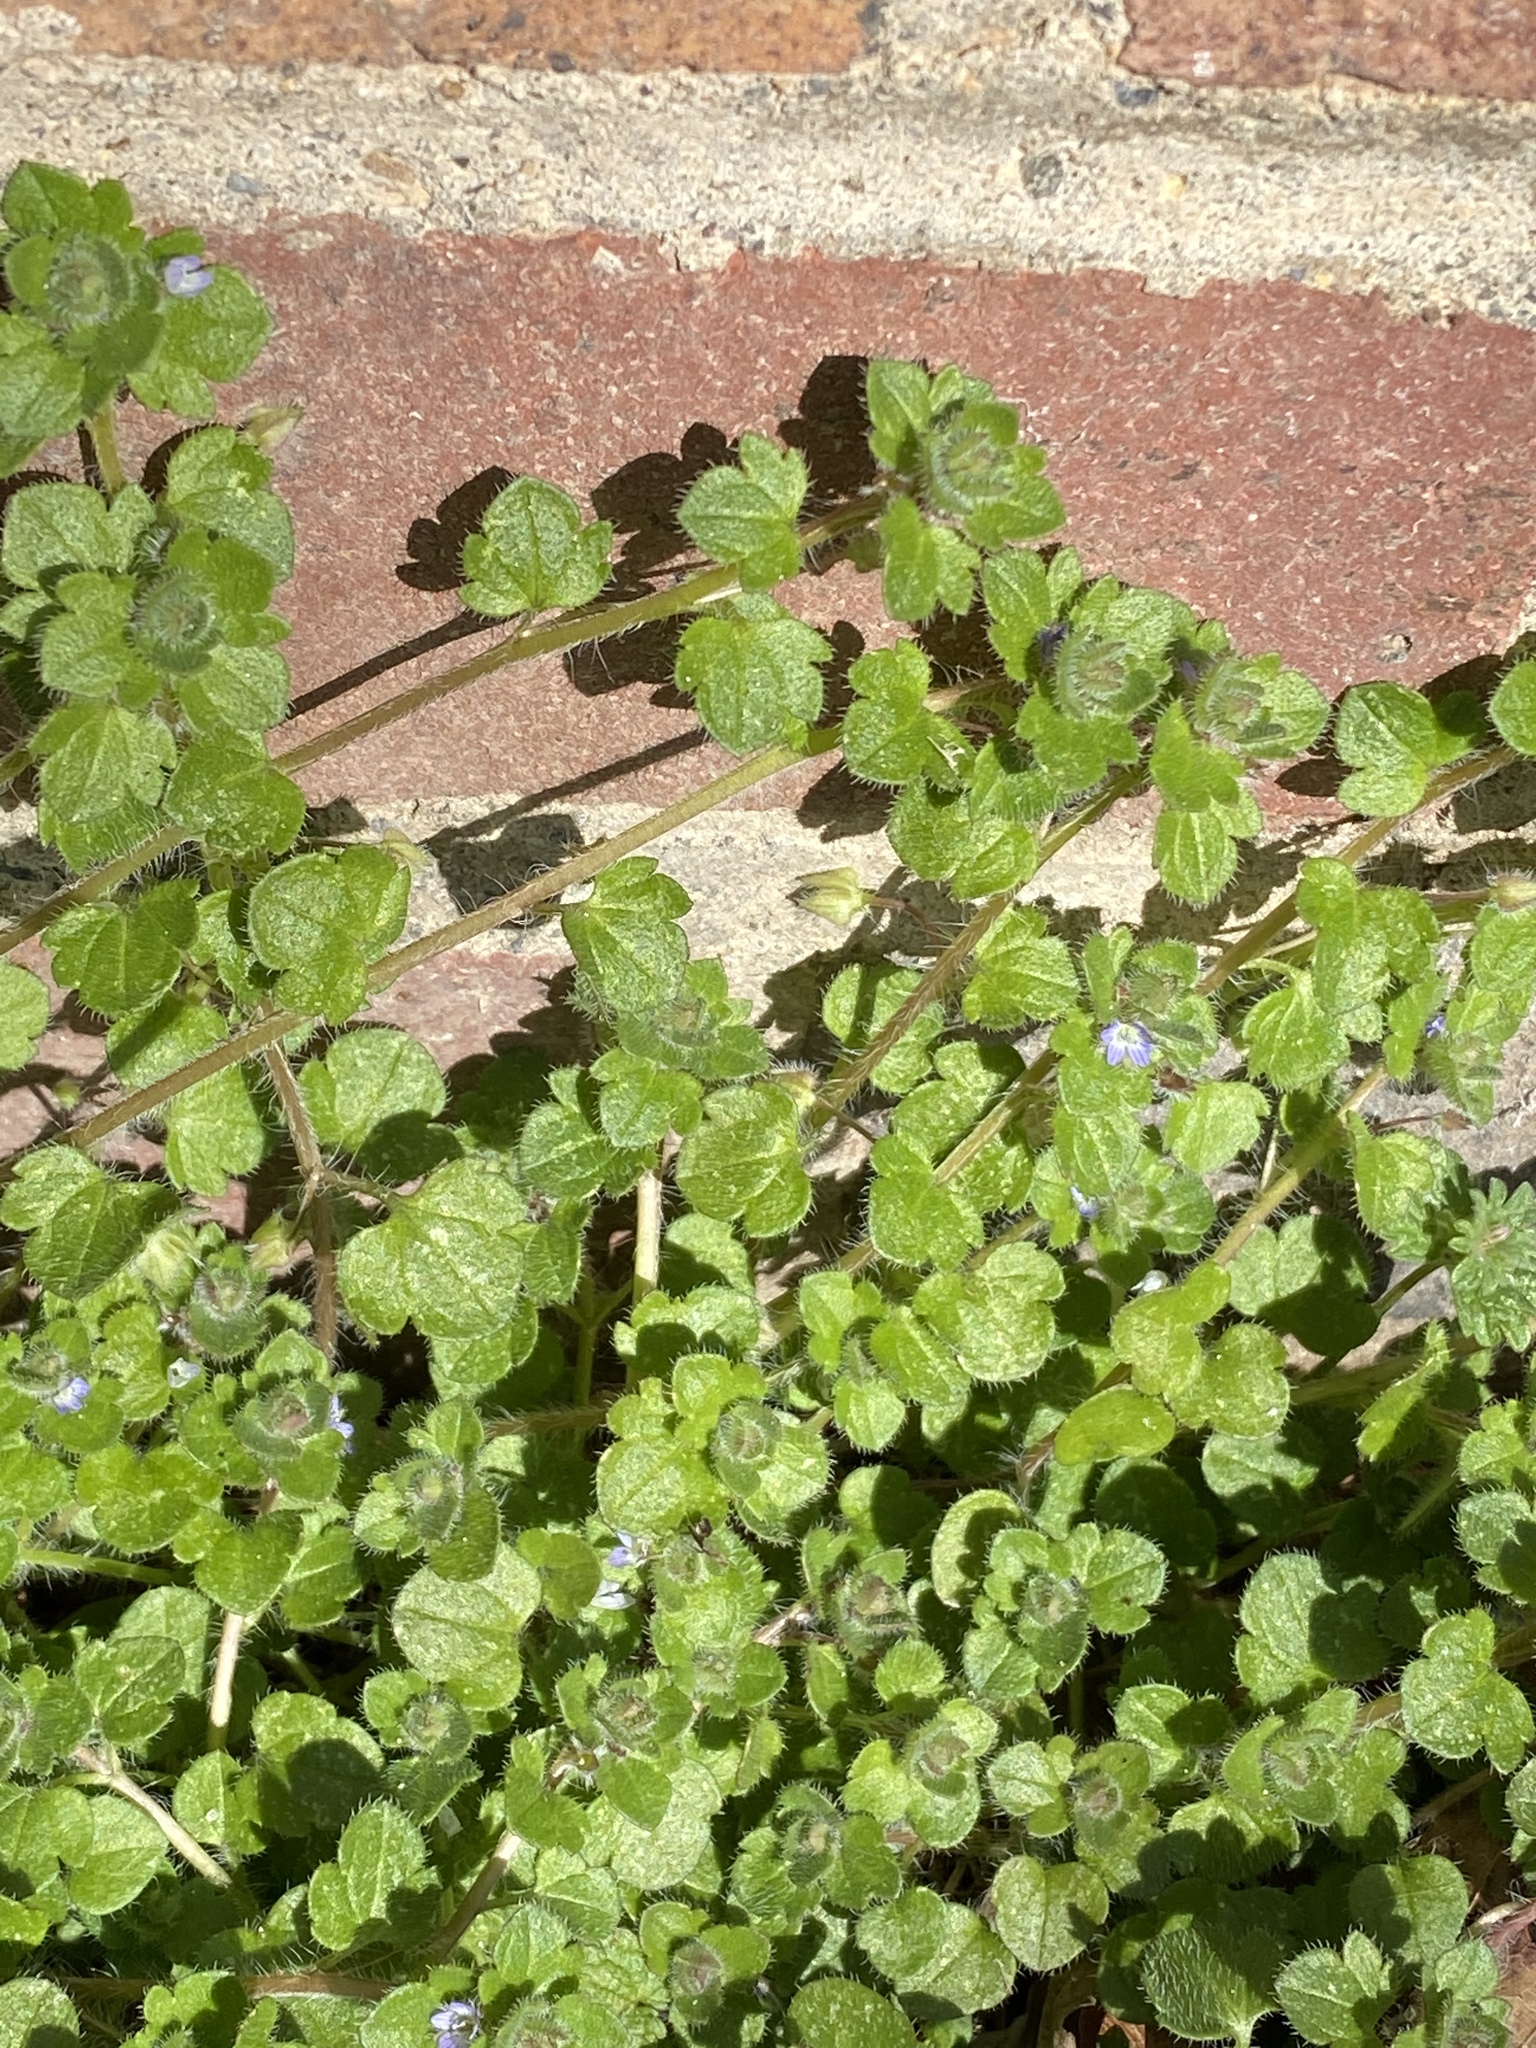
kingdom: Plantae
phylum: Tracheophyta
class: Magnoliopsida
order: Lamiales
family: Plantaginaceae
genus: Veronica
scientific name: Veronica hederifolia
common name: Ivy-leaved speedwell
